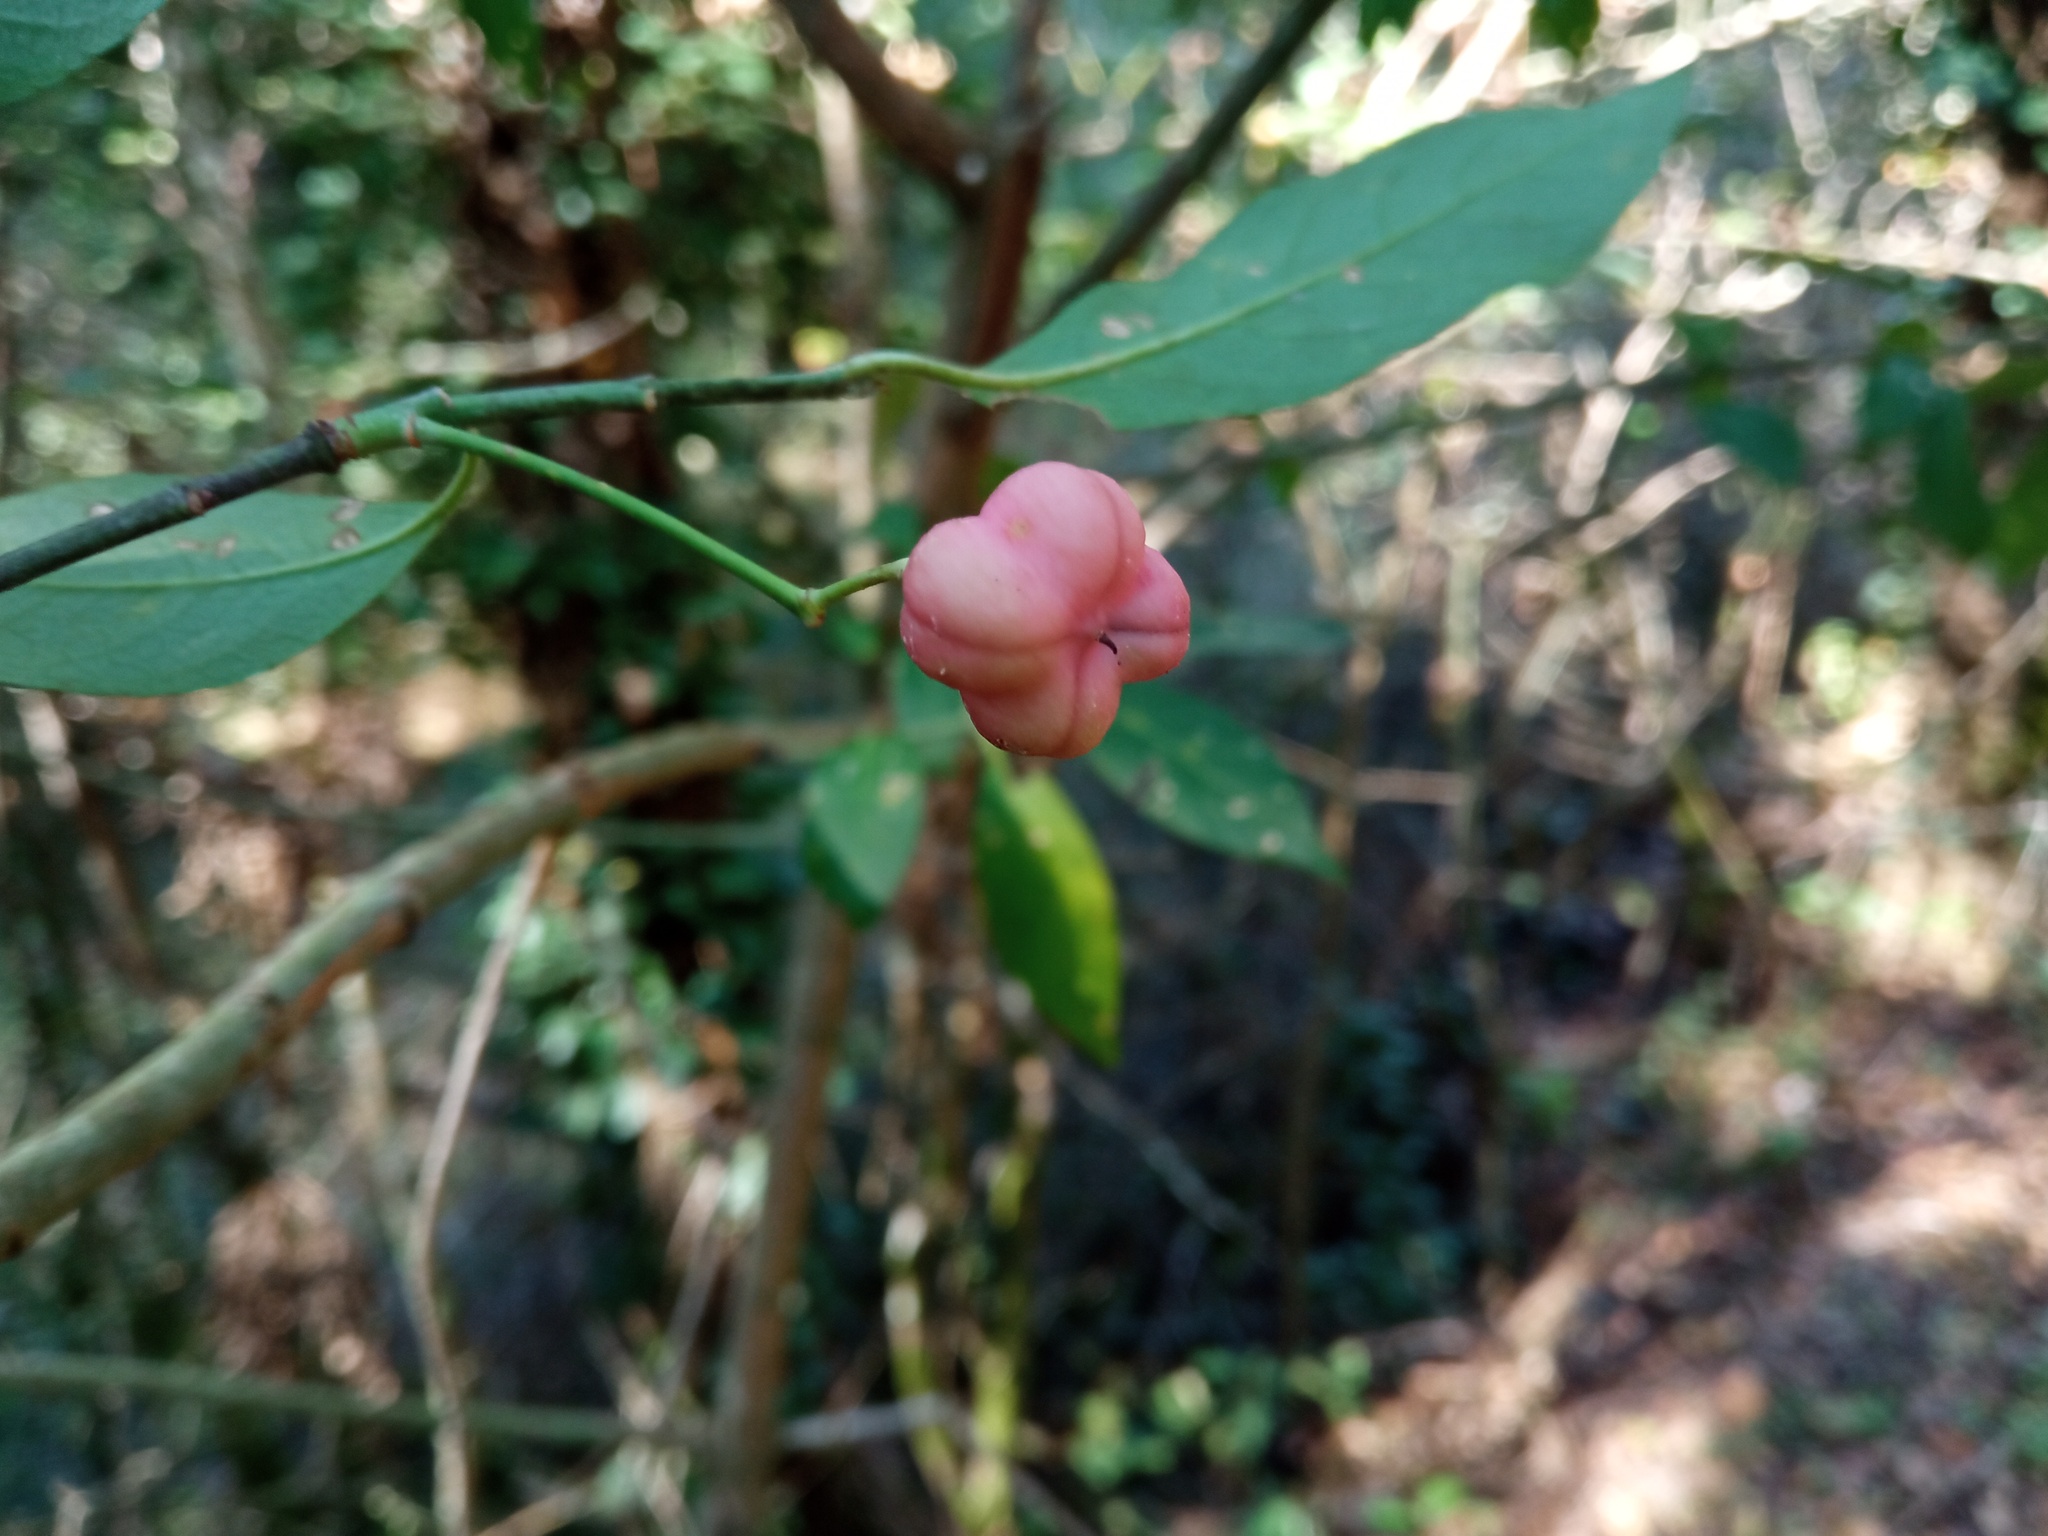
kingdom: Plantae
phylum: Tracheophyta
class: Magnoliopsida
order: Celastrales
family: Celastraceae
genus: Euonymus
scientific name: Euonymus europaeus
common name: Spindle
